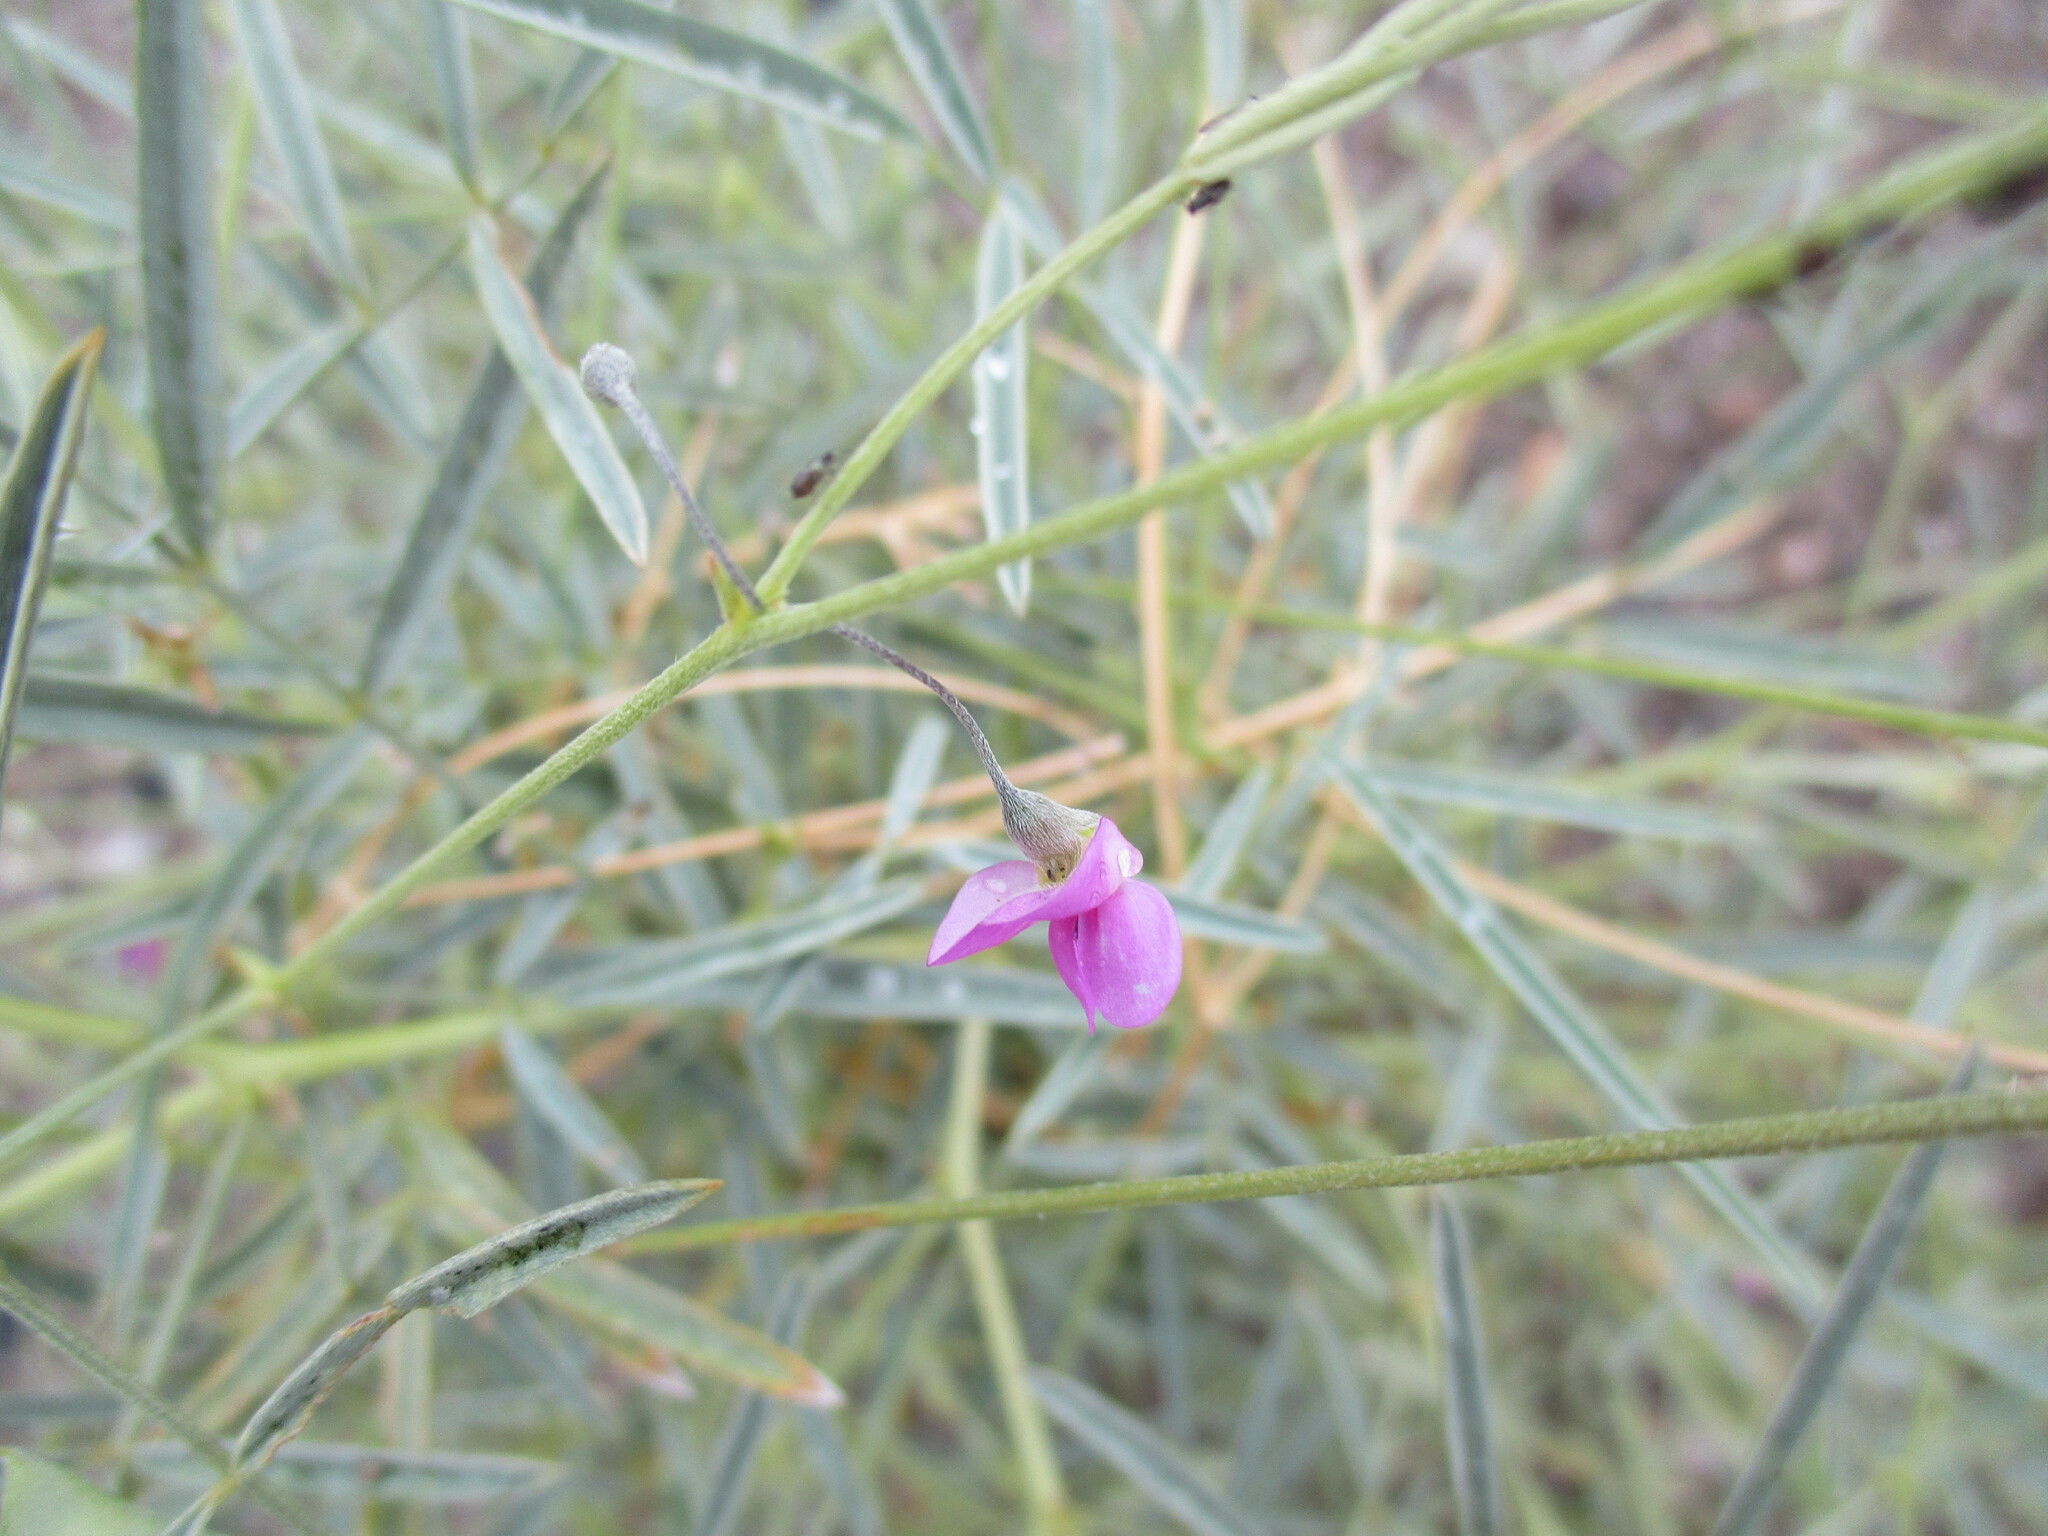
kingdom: Plantae
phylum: Tracheophyta
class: Magnoliopsida
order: Fabales
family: Fabaceae
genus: Tephrosia
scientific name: Tephrosia dregeana
